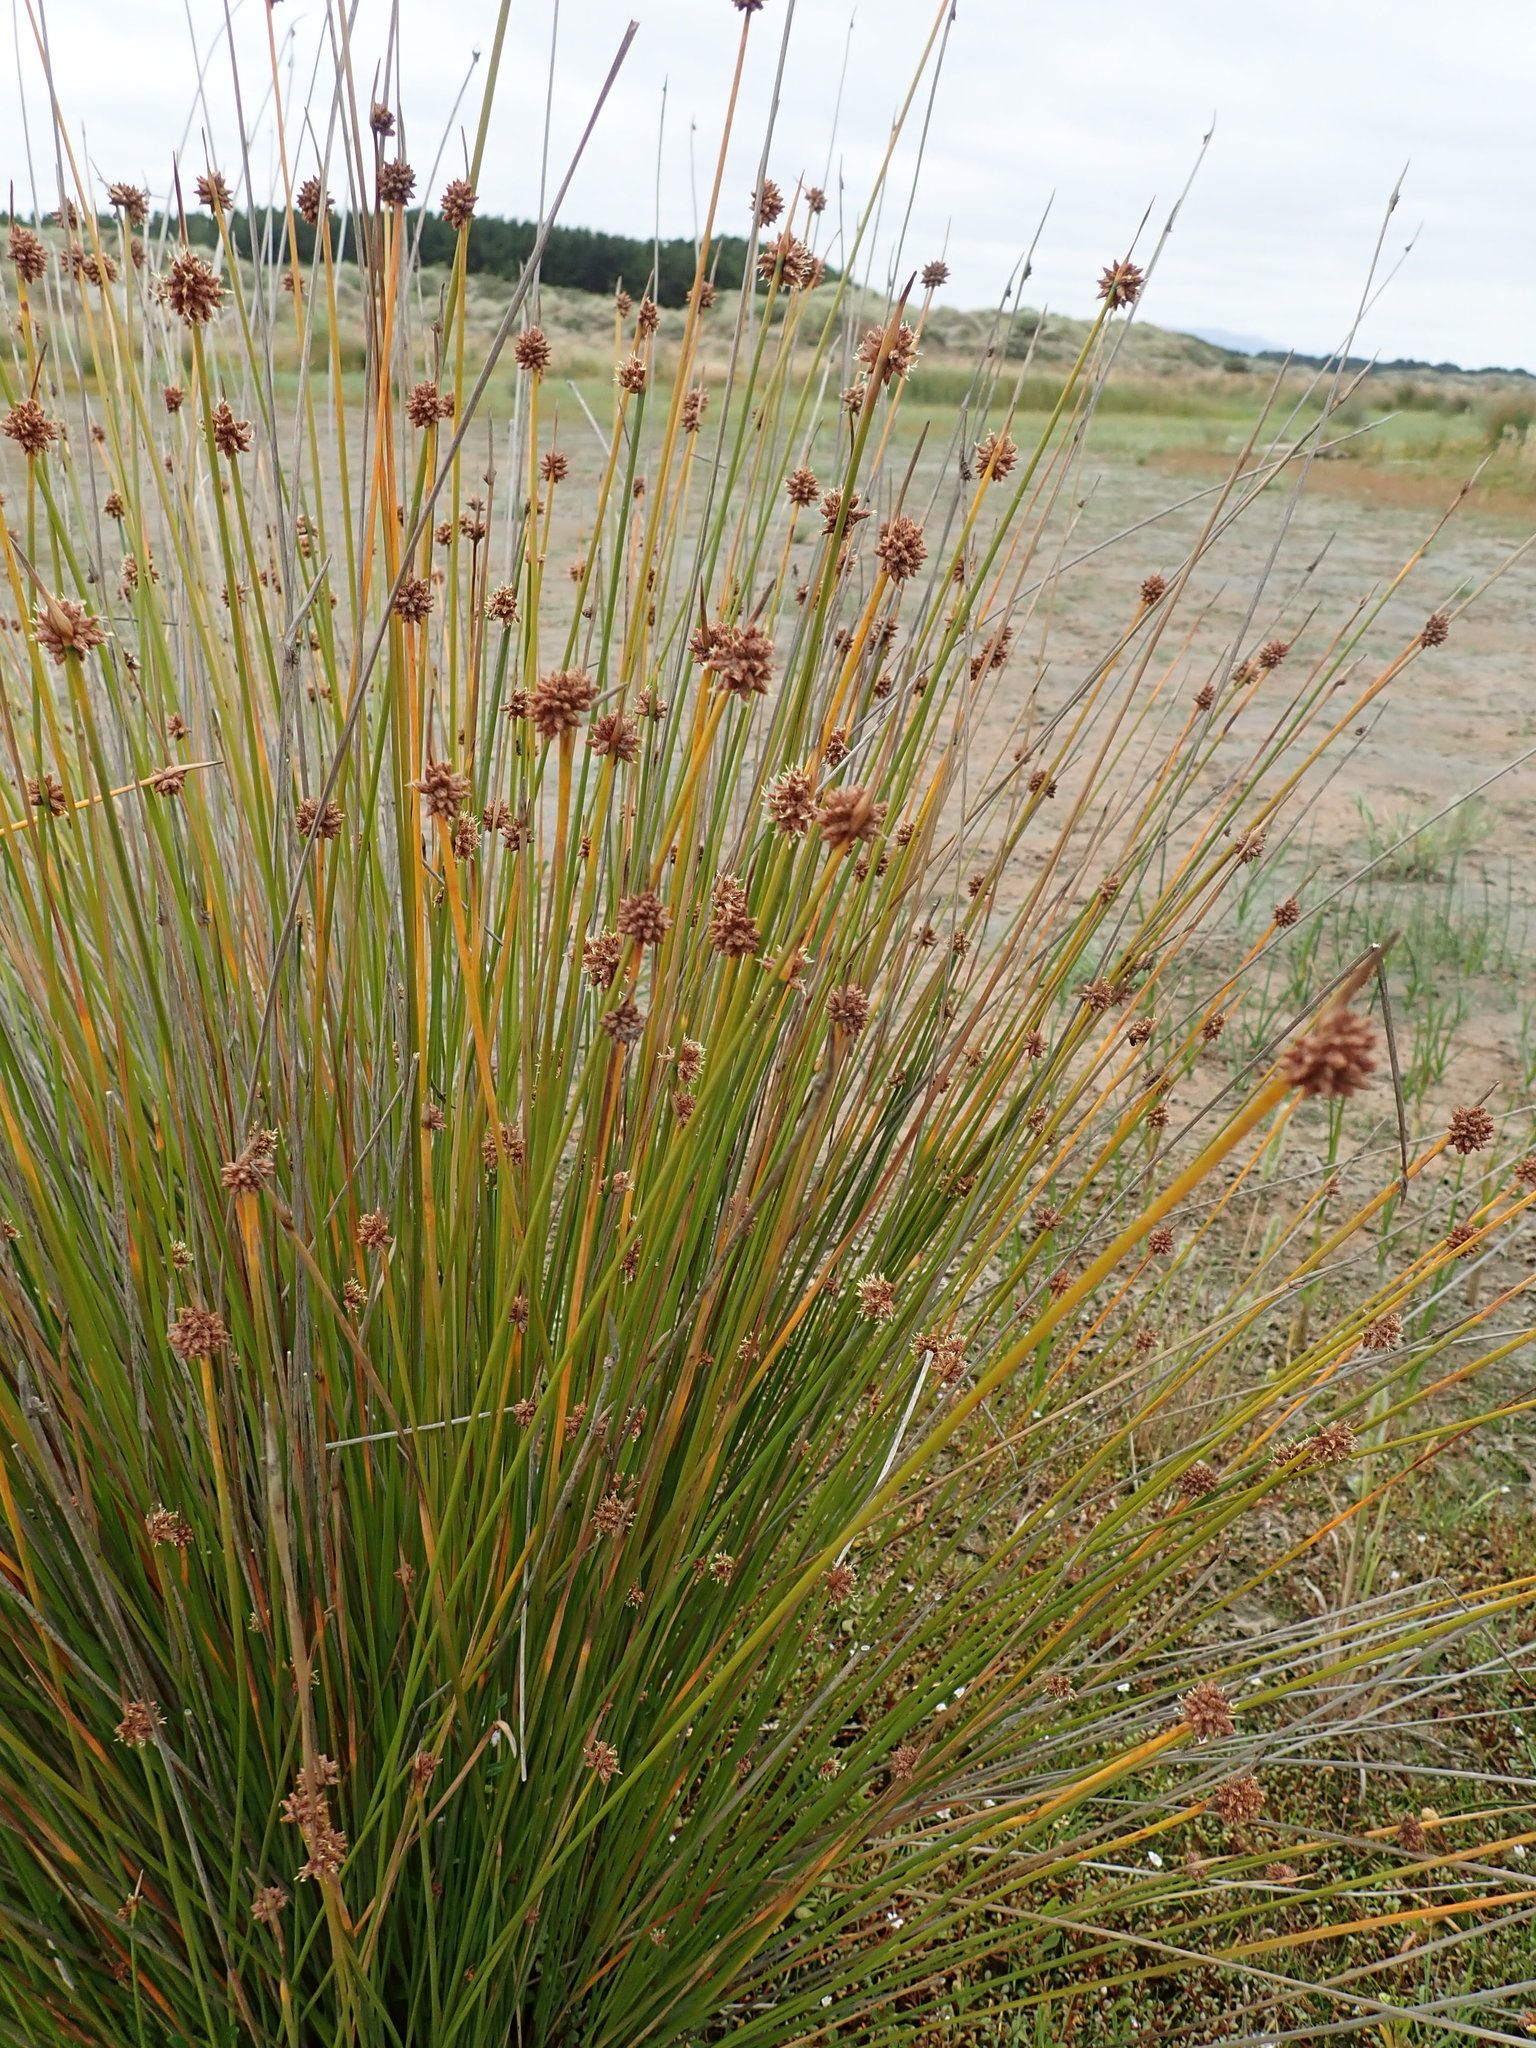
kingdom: Plantae
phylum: Tracheophyta
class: Liliopsida
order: Poales
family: Cyperaceae
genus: Ficinia
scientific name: Ficinia nodosa
